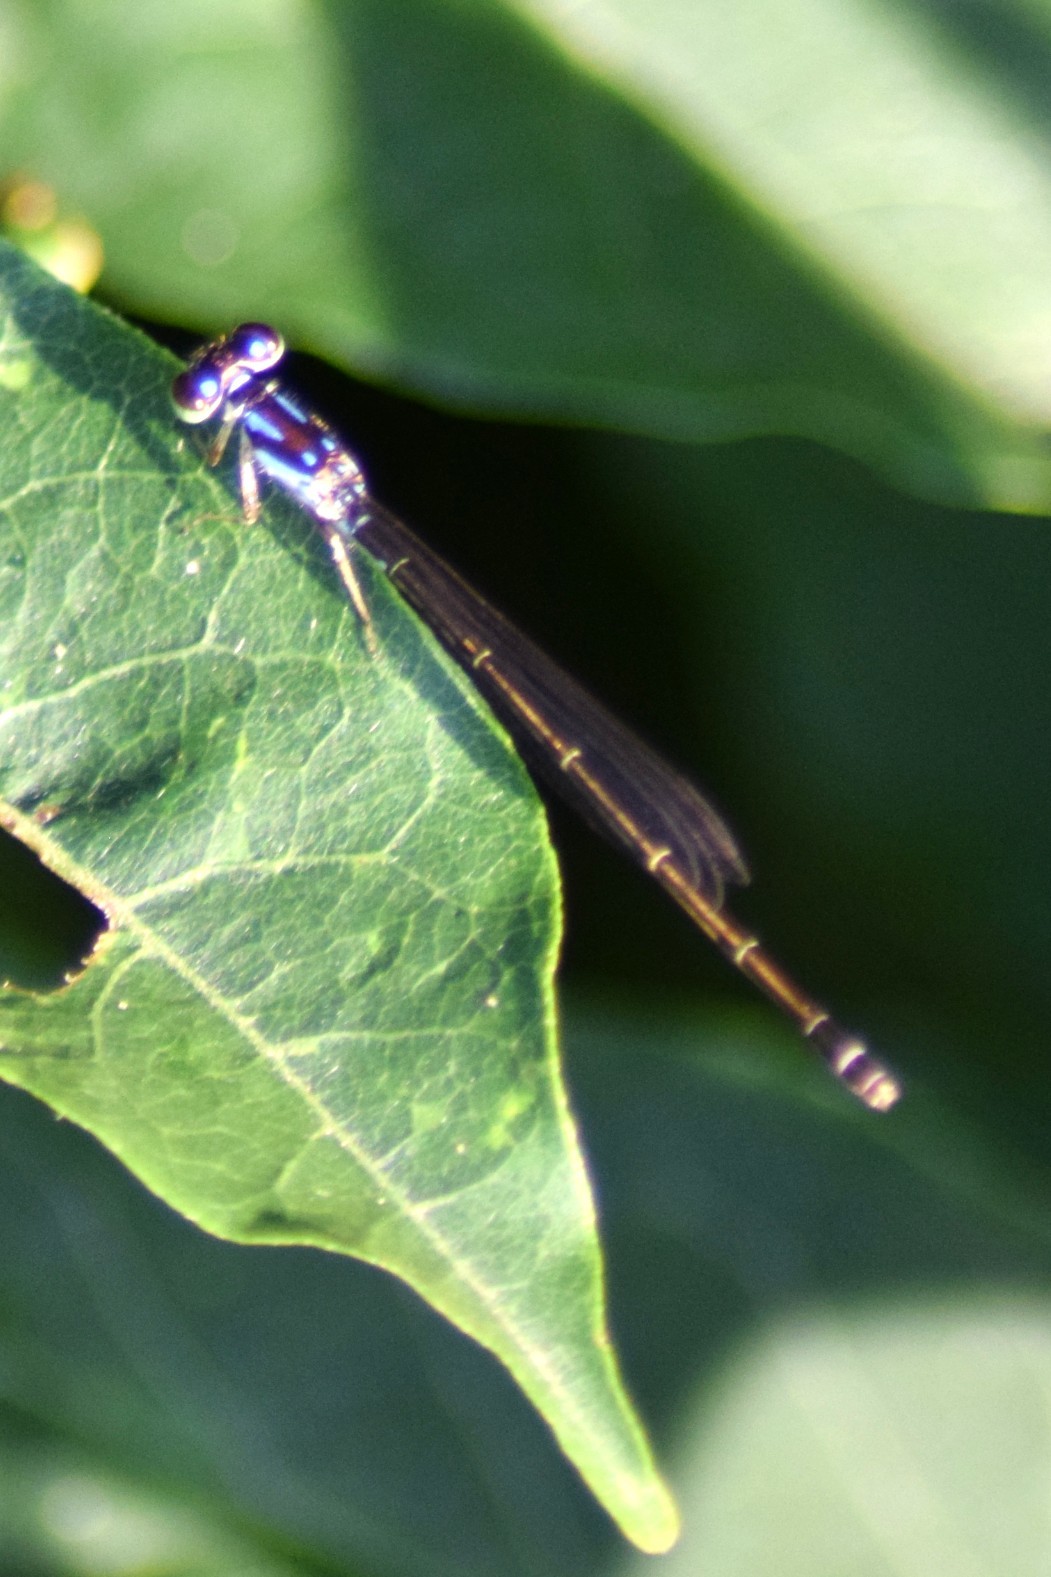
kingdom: Animalia
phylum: Arthropoda
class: Insecta
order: Odonata
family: Coenagrionidae
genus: Ischnura
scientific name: Ischnura posita
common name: Fragile forktail
